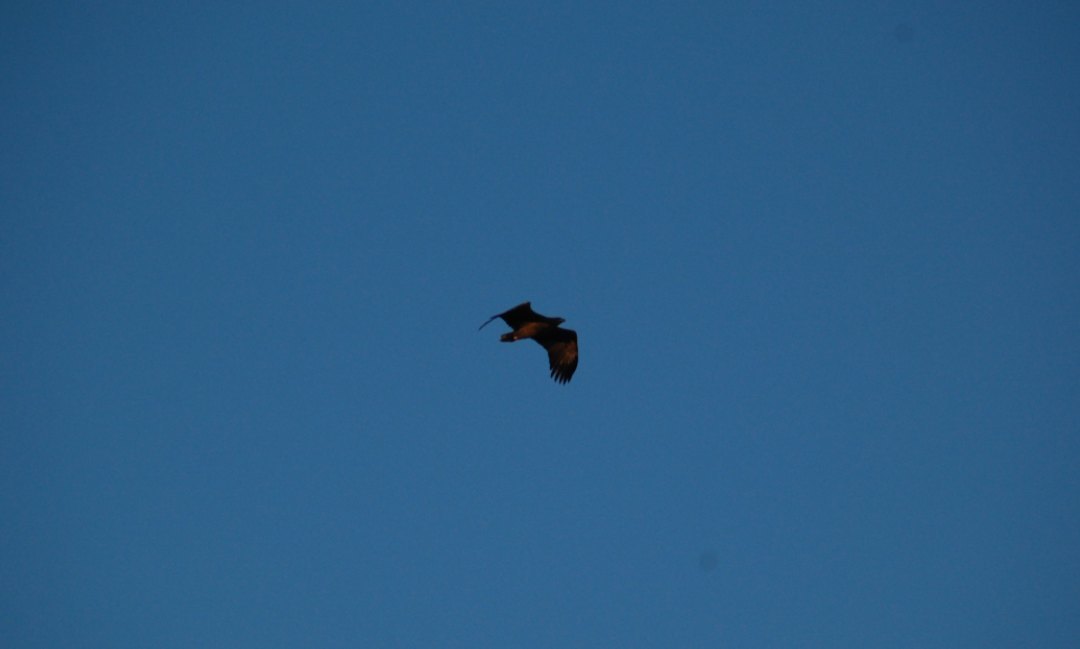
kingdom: Animalia
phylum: Chordata
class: Aves
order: Accipitriformes
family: Accipitridae
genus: Haliaeetus
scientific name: Haliaeetus albicilla
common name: White-tailed eagle
